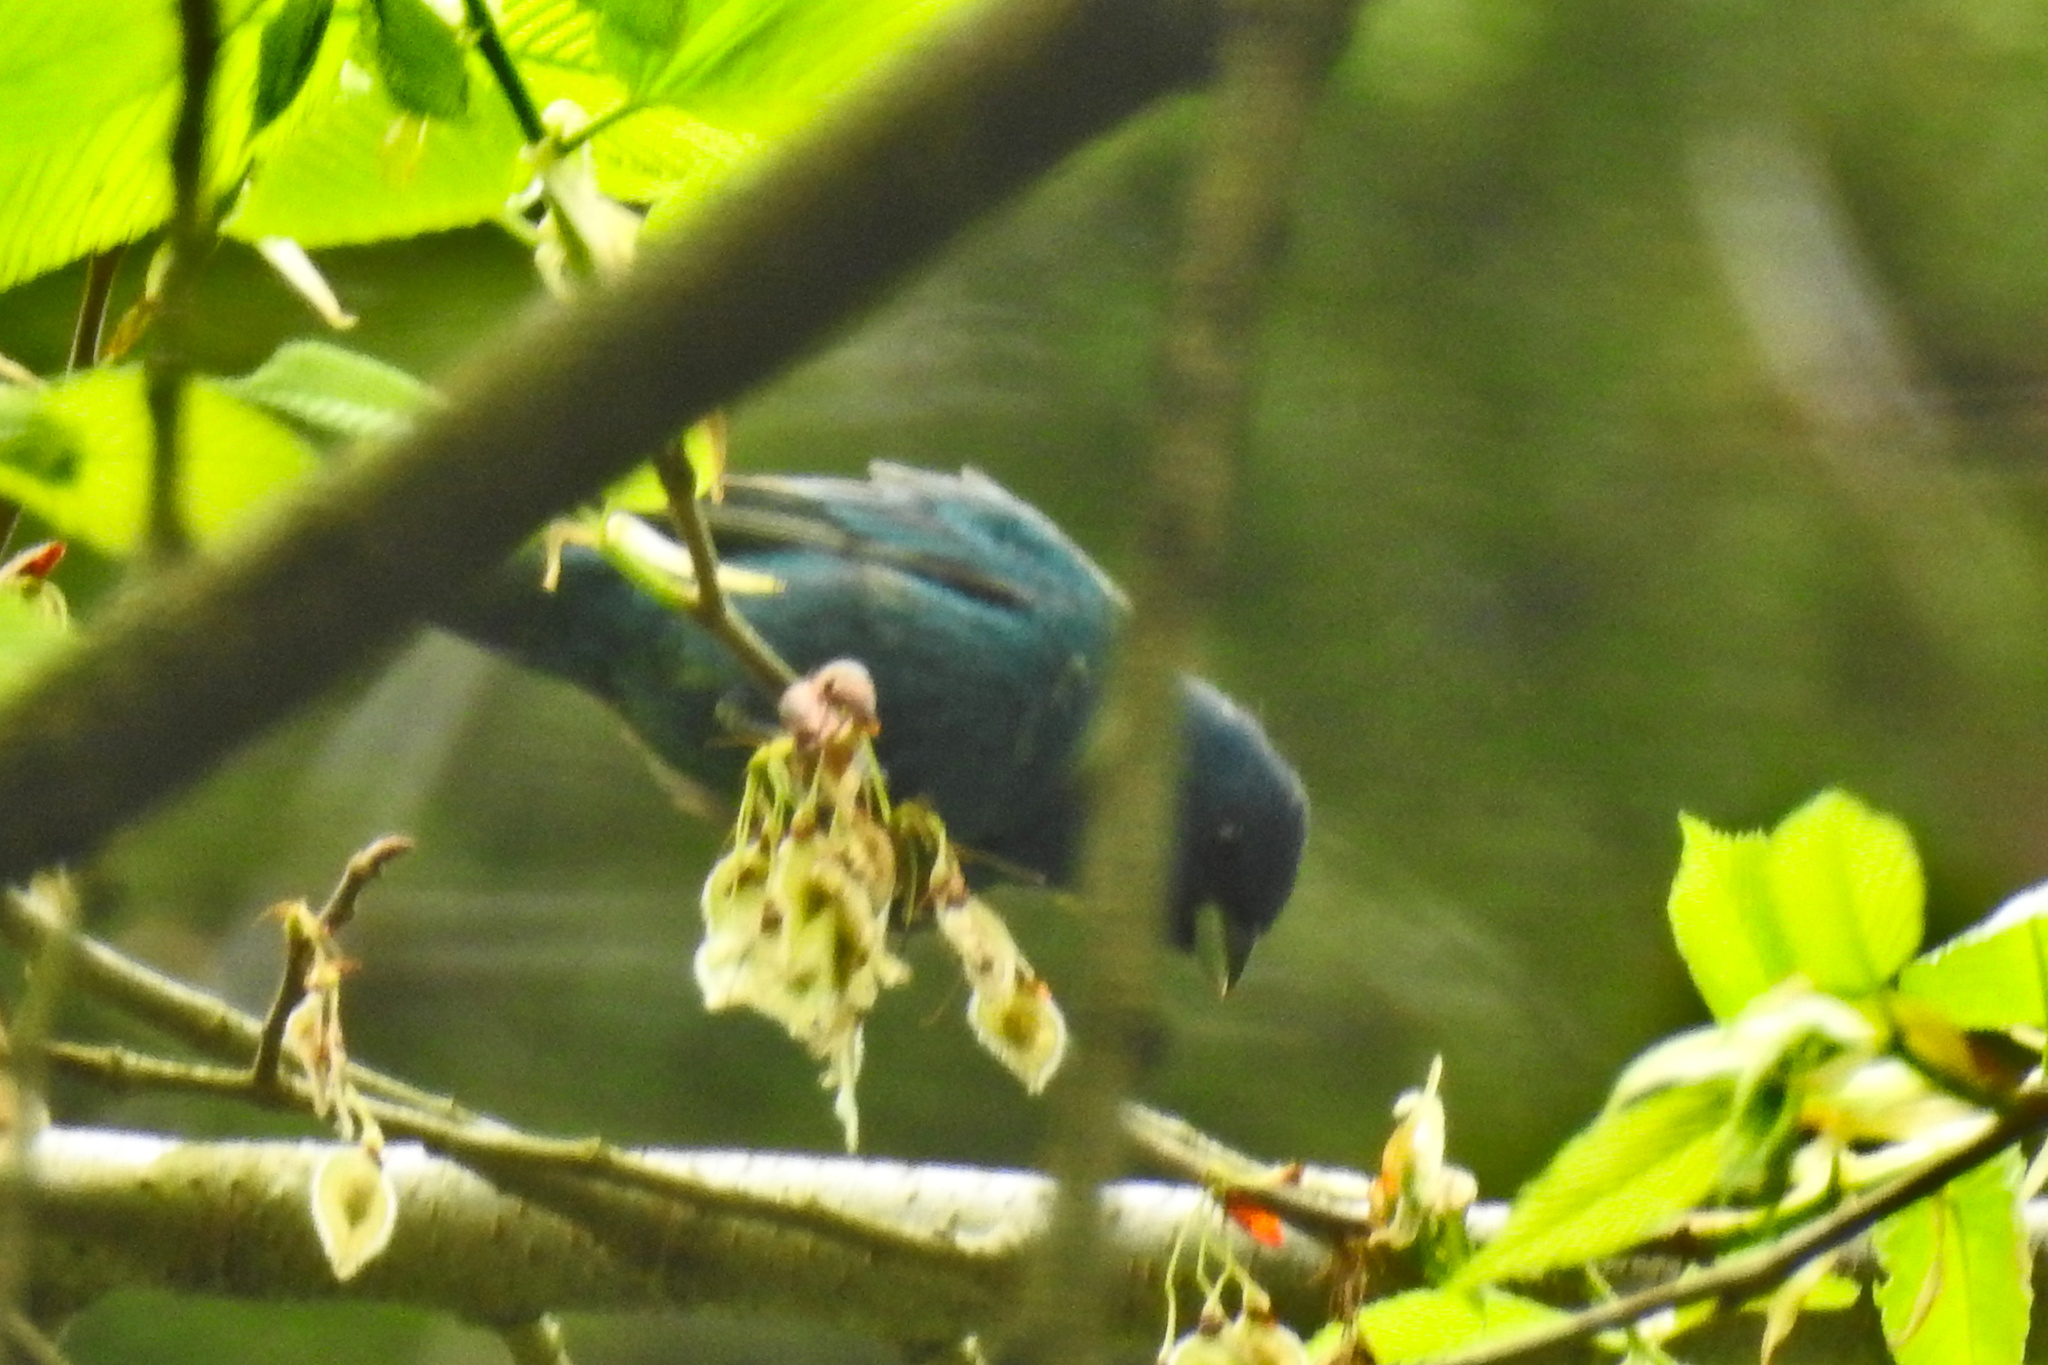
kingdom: Animalia
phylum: Chordata
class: Aves
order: Passeriformes
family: Cardinalidae
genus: Passerina
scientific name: Passerina cyanea
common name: Indigo bunting
